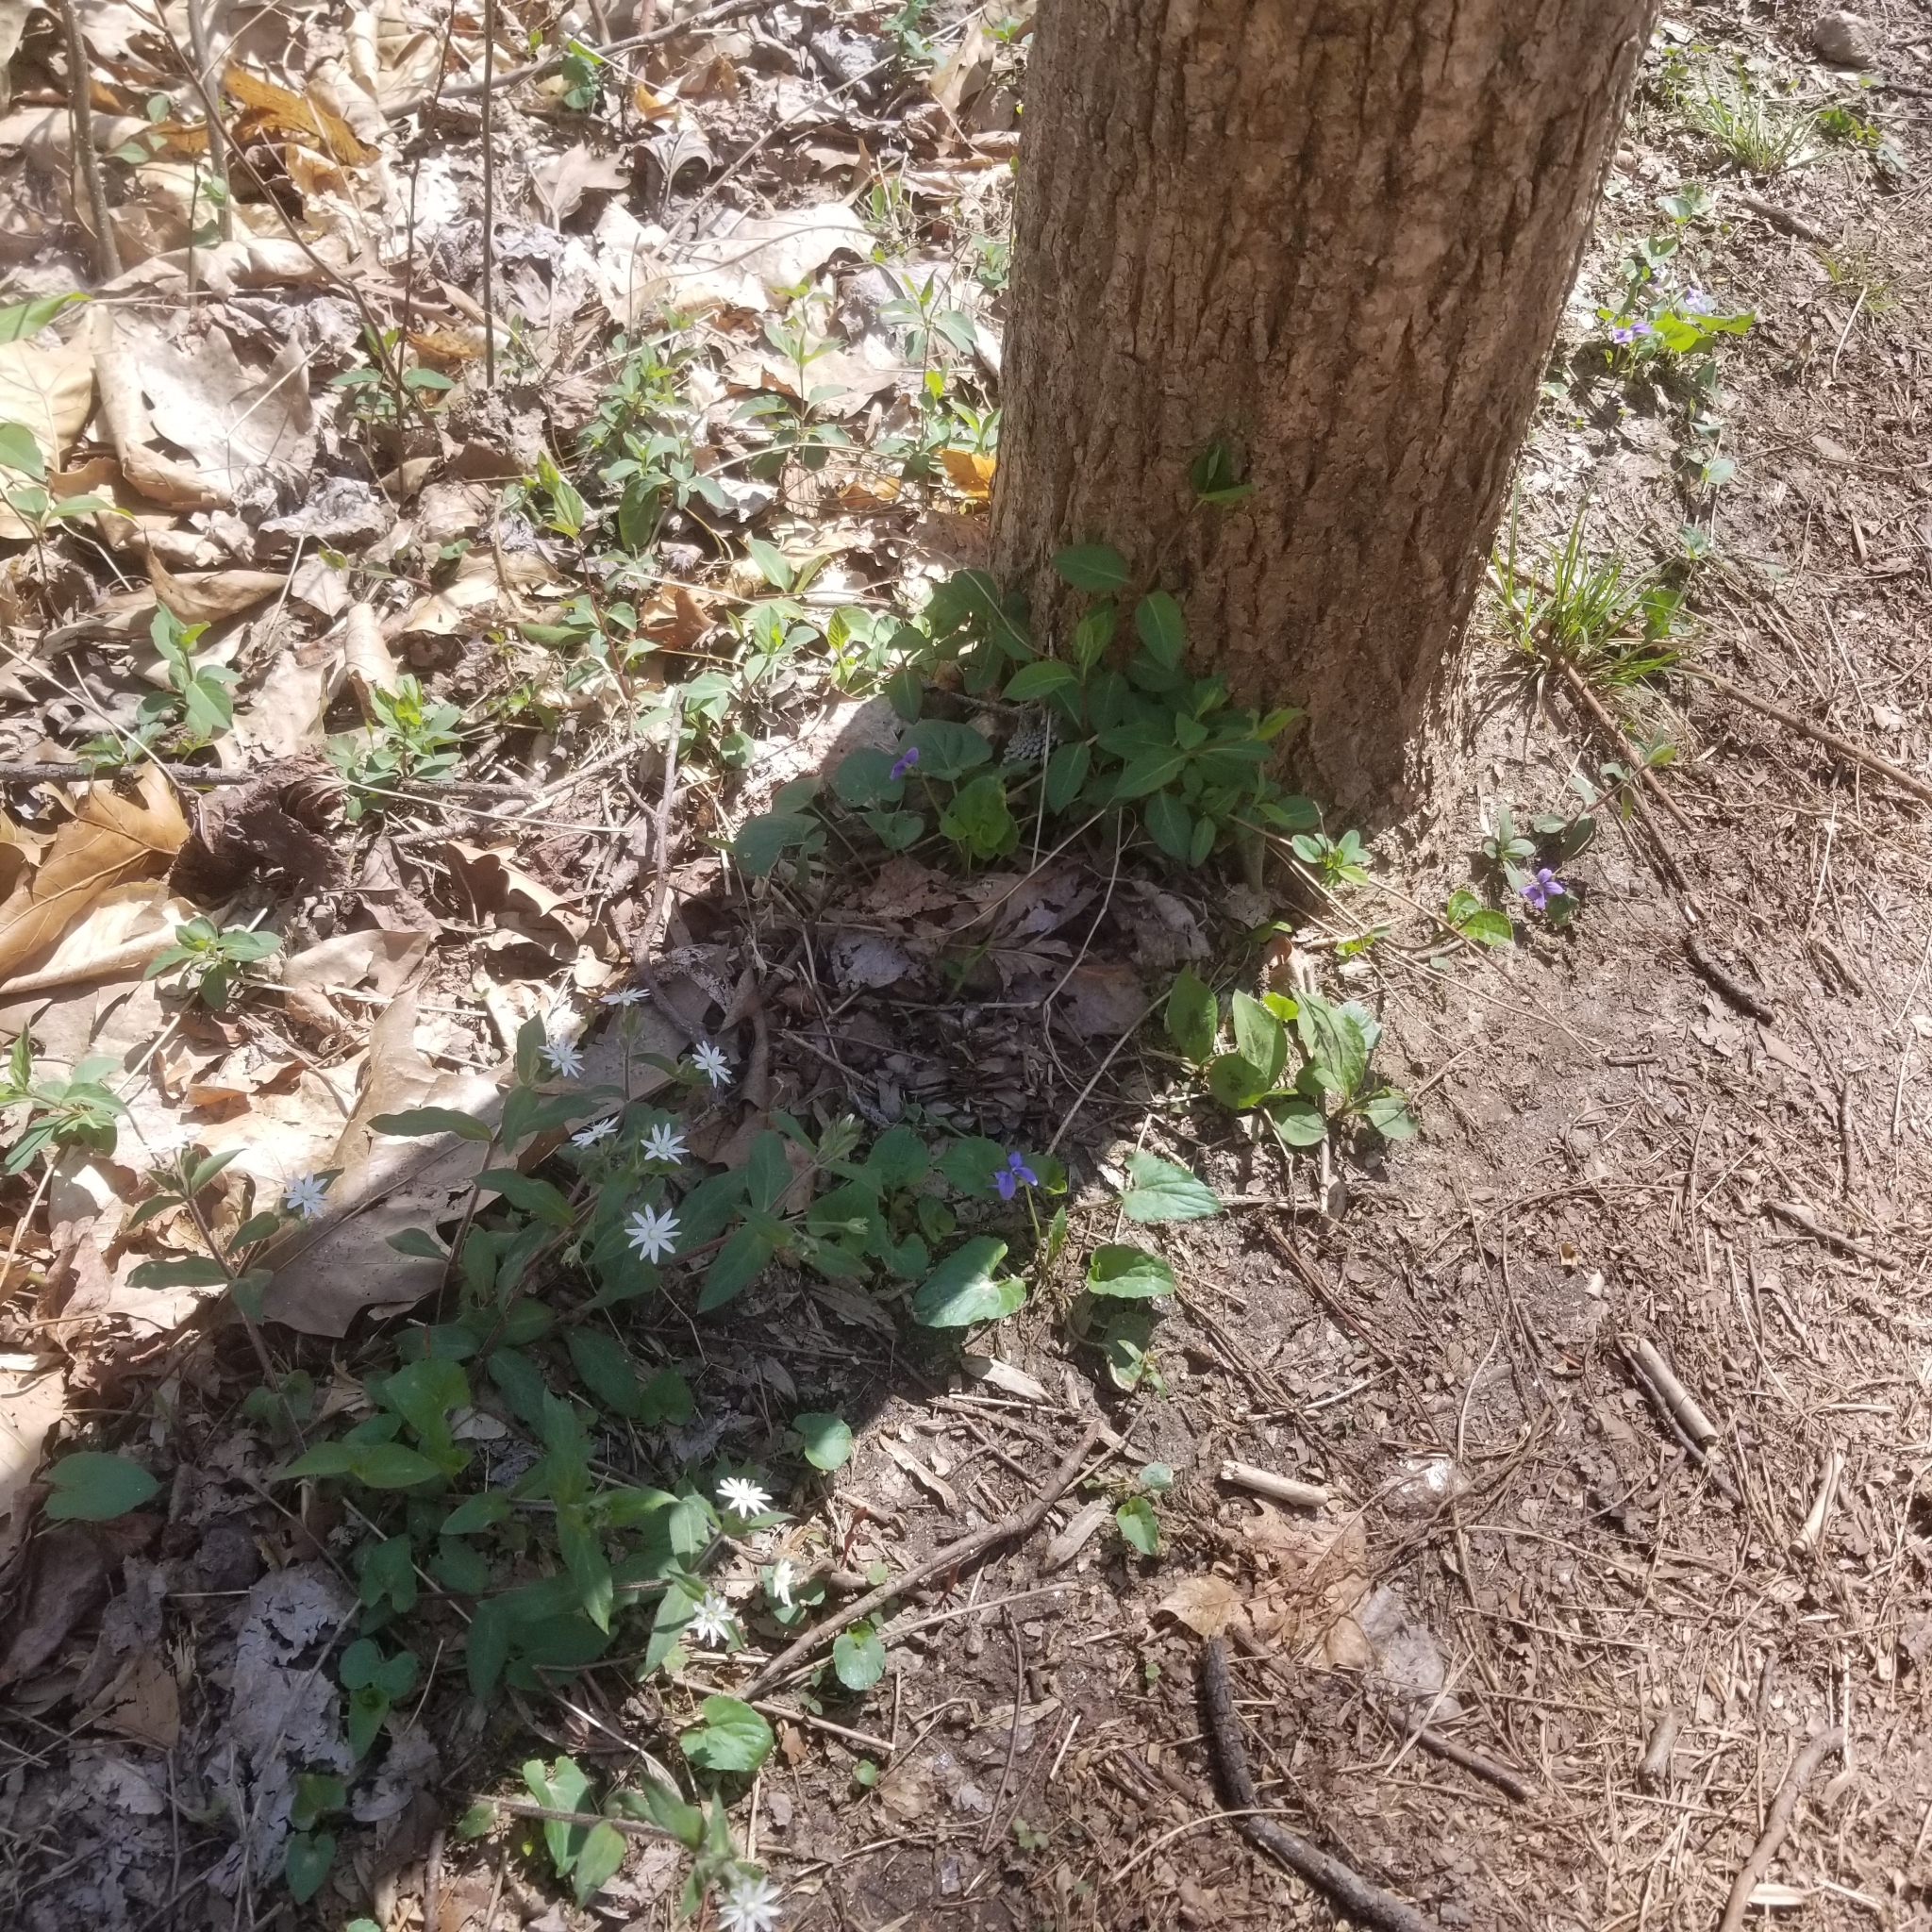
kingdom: Plantae
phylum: Tracheophyta
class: Magnoliopsida
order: Caryophyllales
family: Caryophyllaceae
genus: Stellaria
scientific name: Stellaria pubera
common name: Star chickweed
